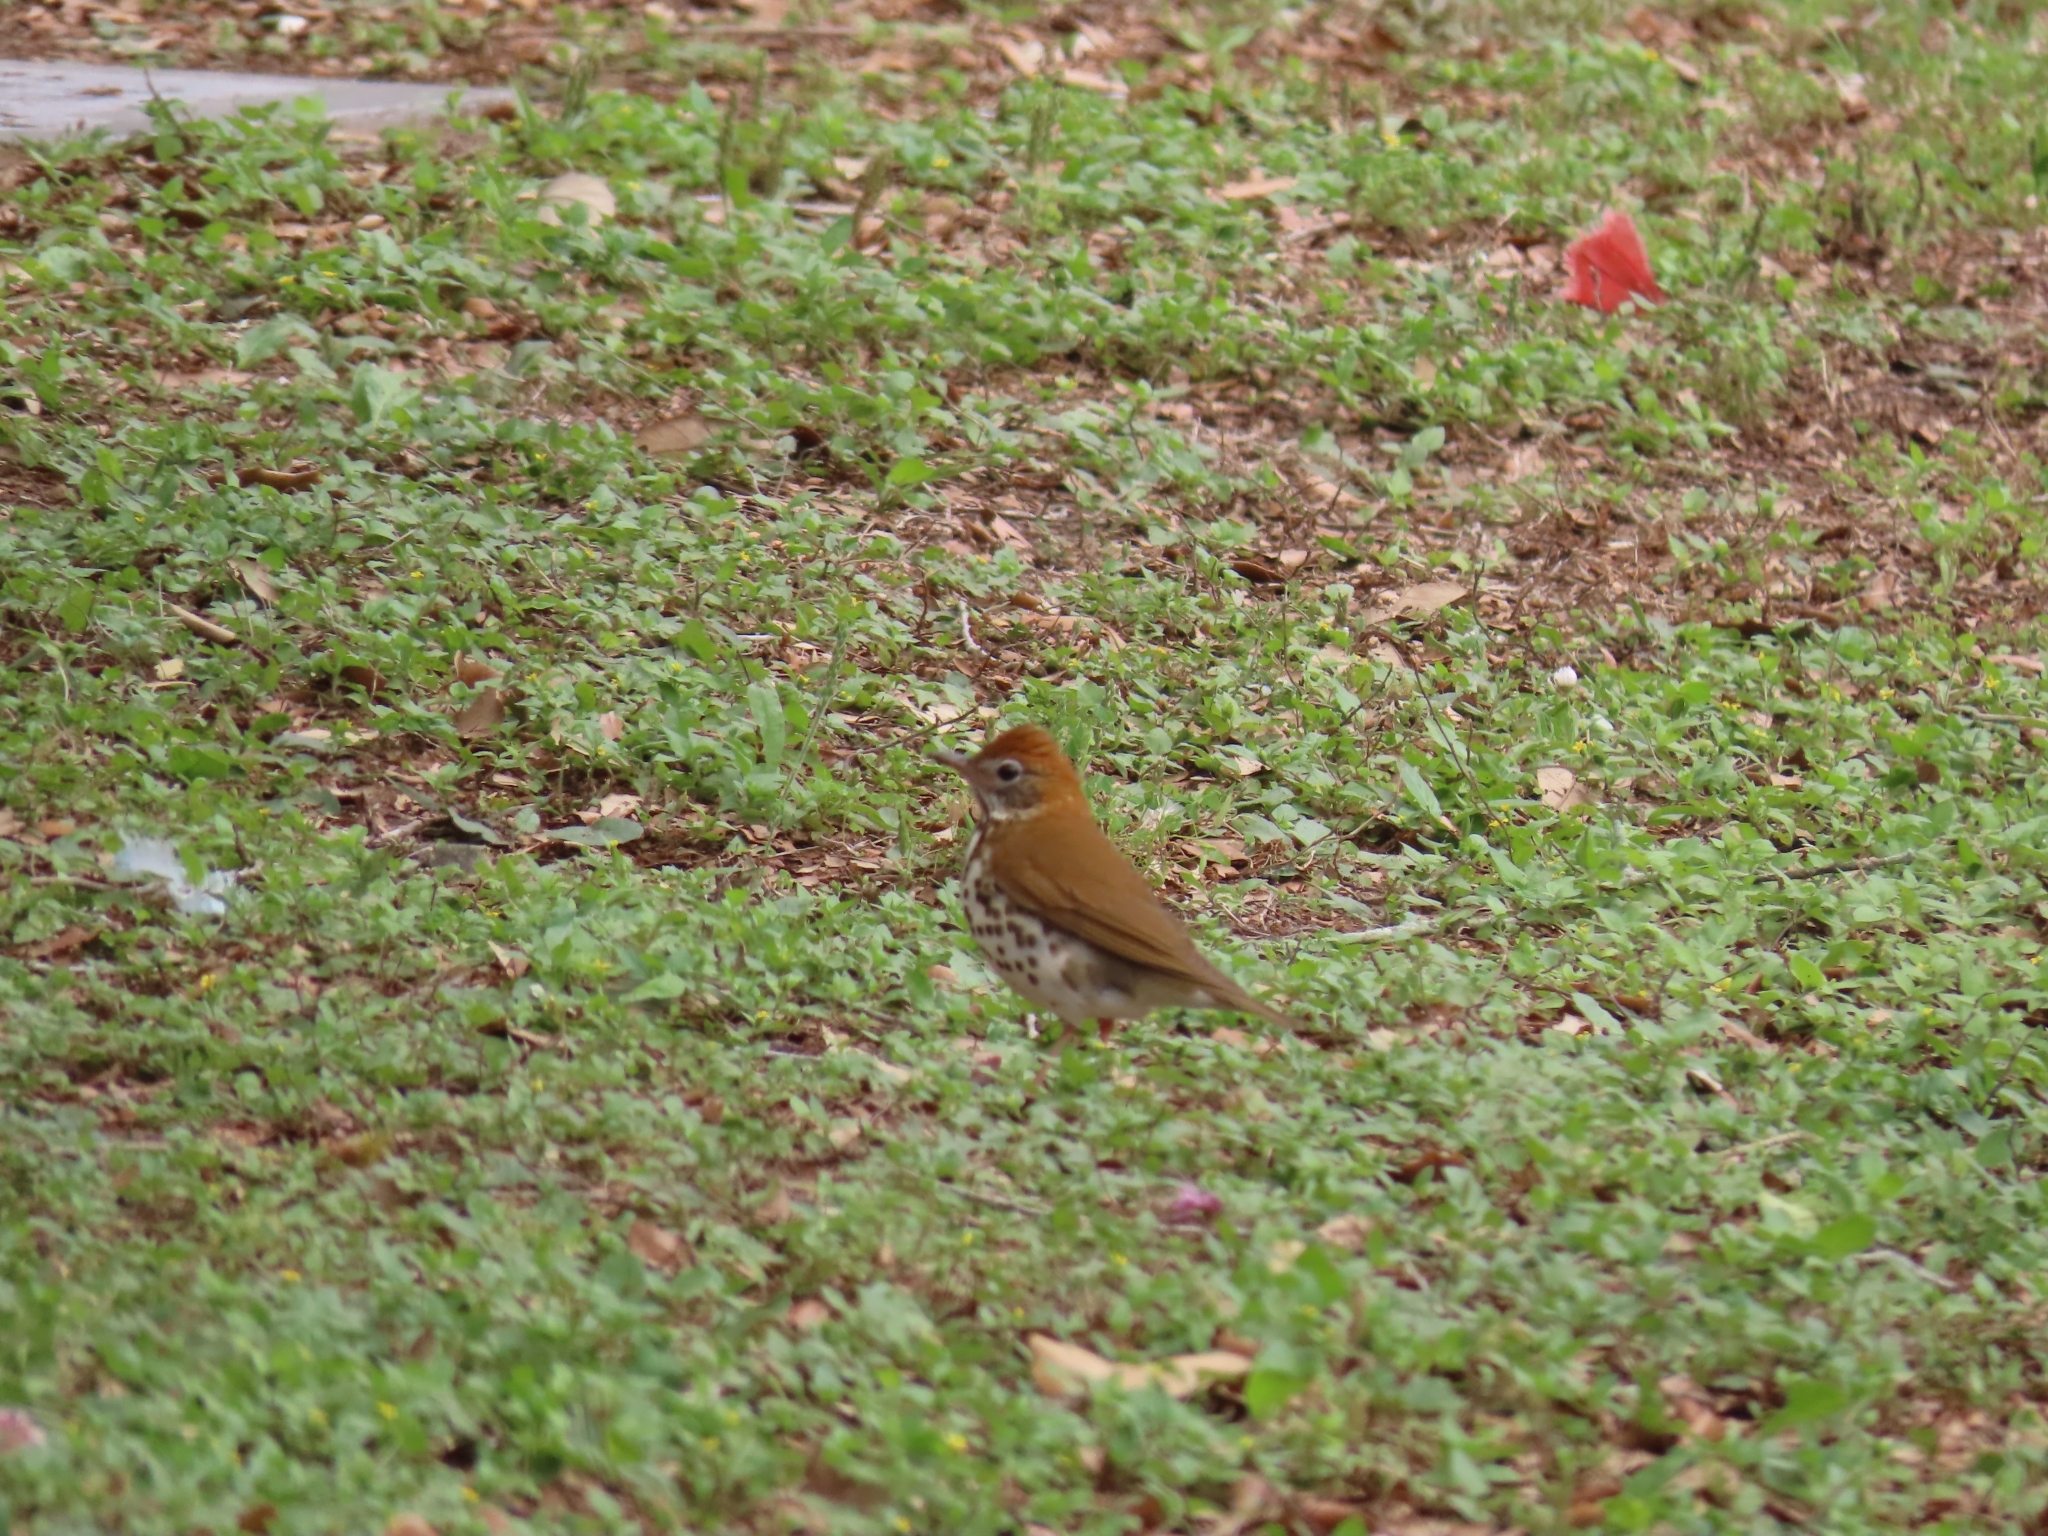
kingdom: Animalia
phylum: Chordata
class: Aves
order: Passeriformes
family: Turdidae
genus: Hylocichla
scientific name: Hylocichla mustelina
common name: Wood thrush
